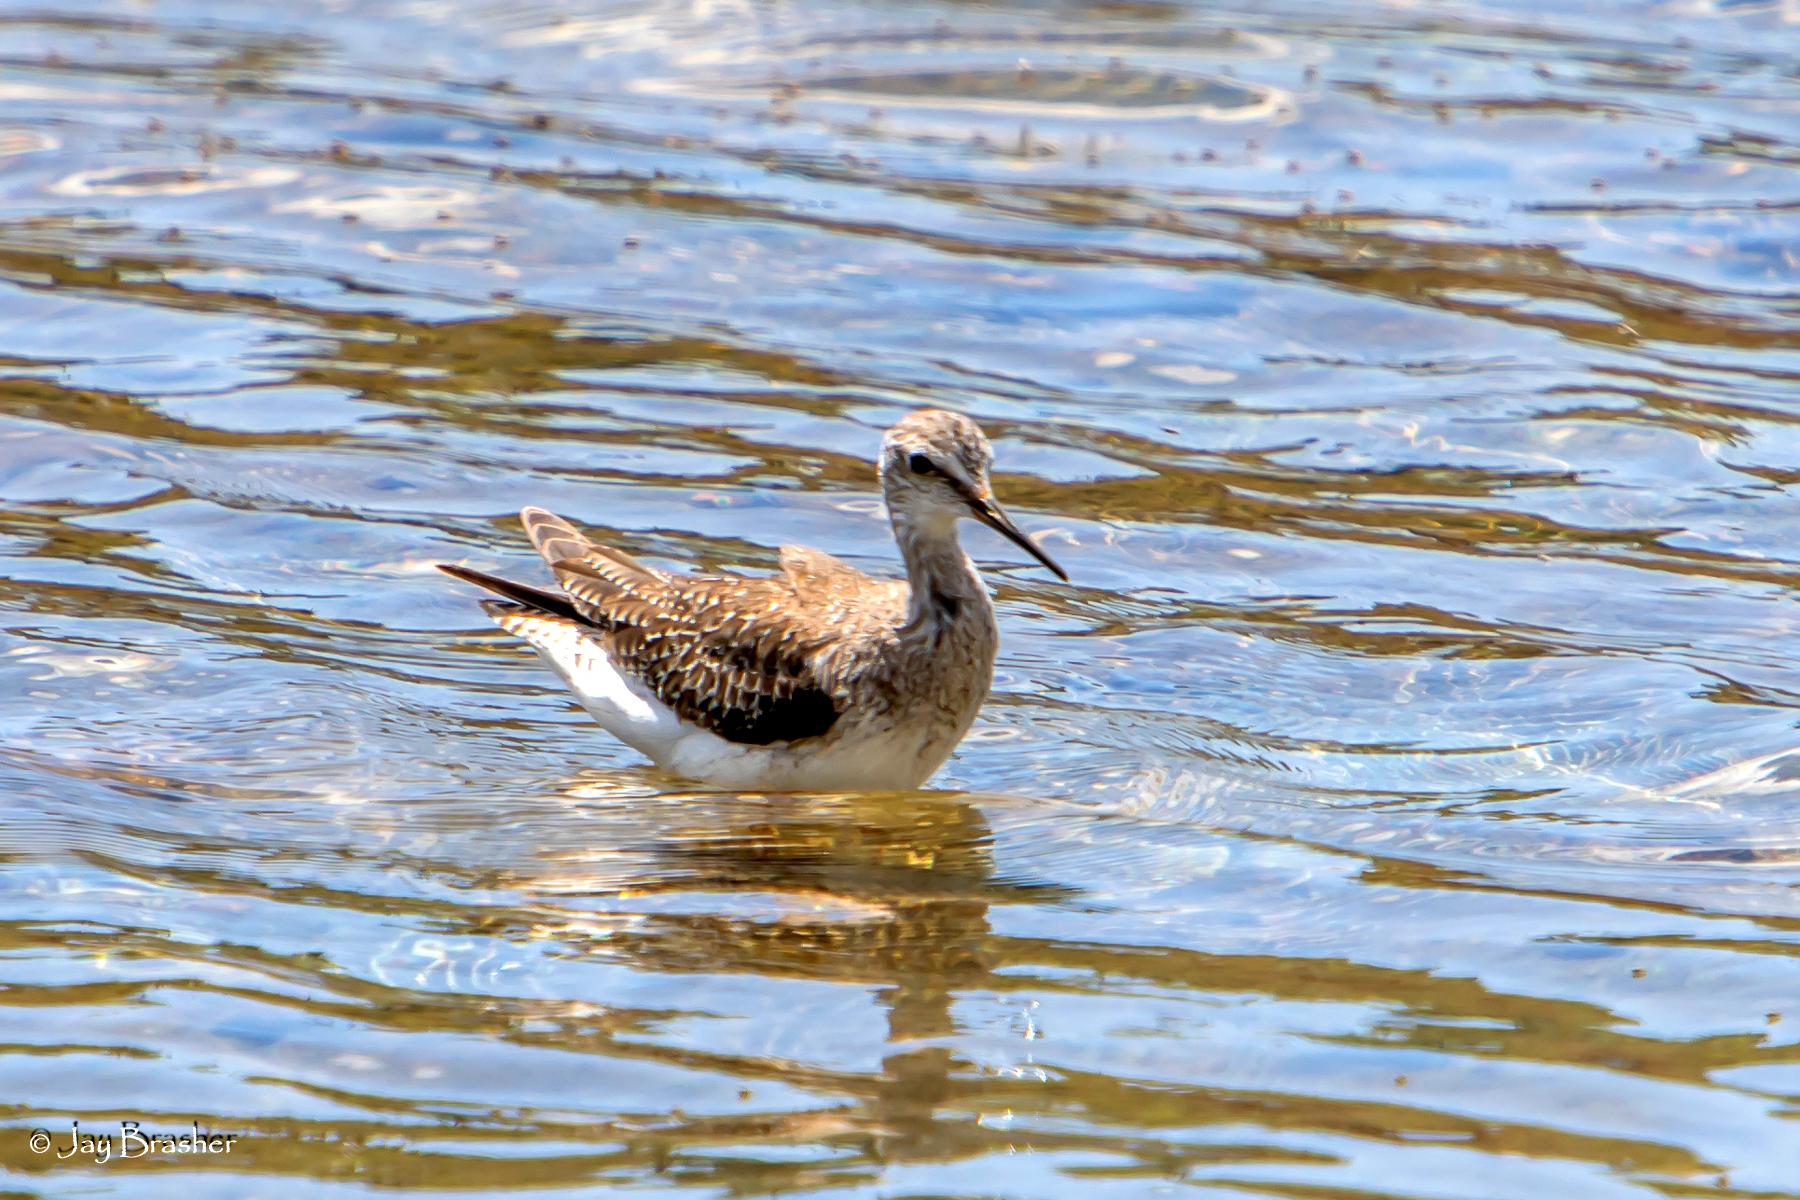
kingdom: Animalia
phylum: Chordata
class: Aves
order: Charadriiformes
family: Scolopacidae
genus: Tringa
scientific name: Tringa flavipes
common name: Lesser yellowlegs
